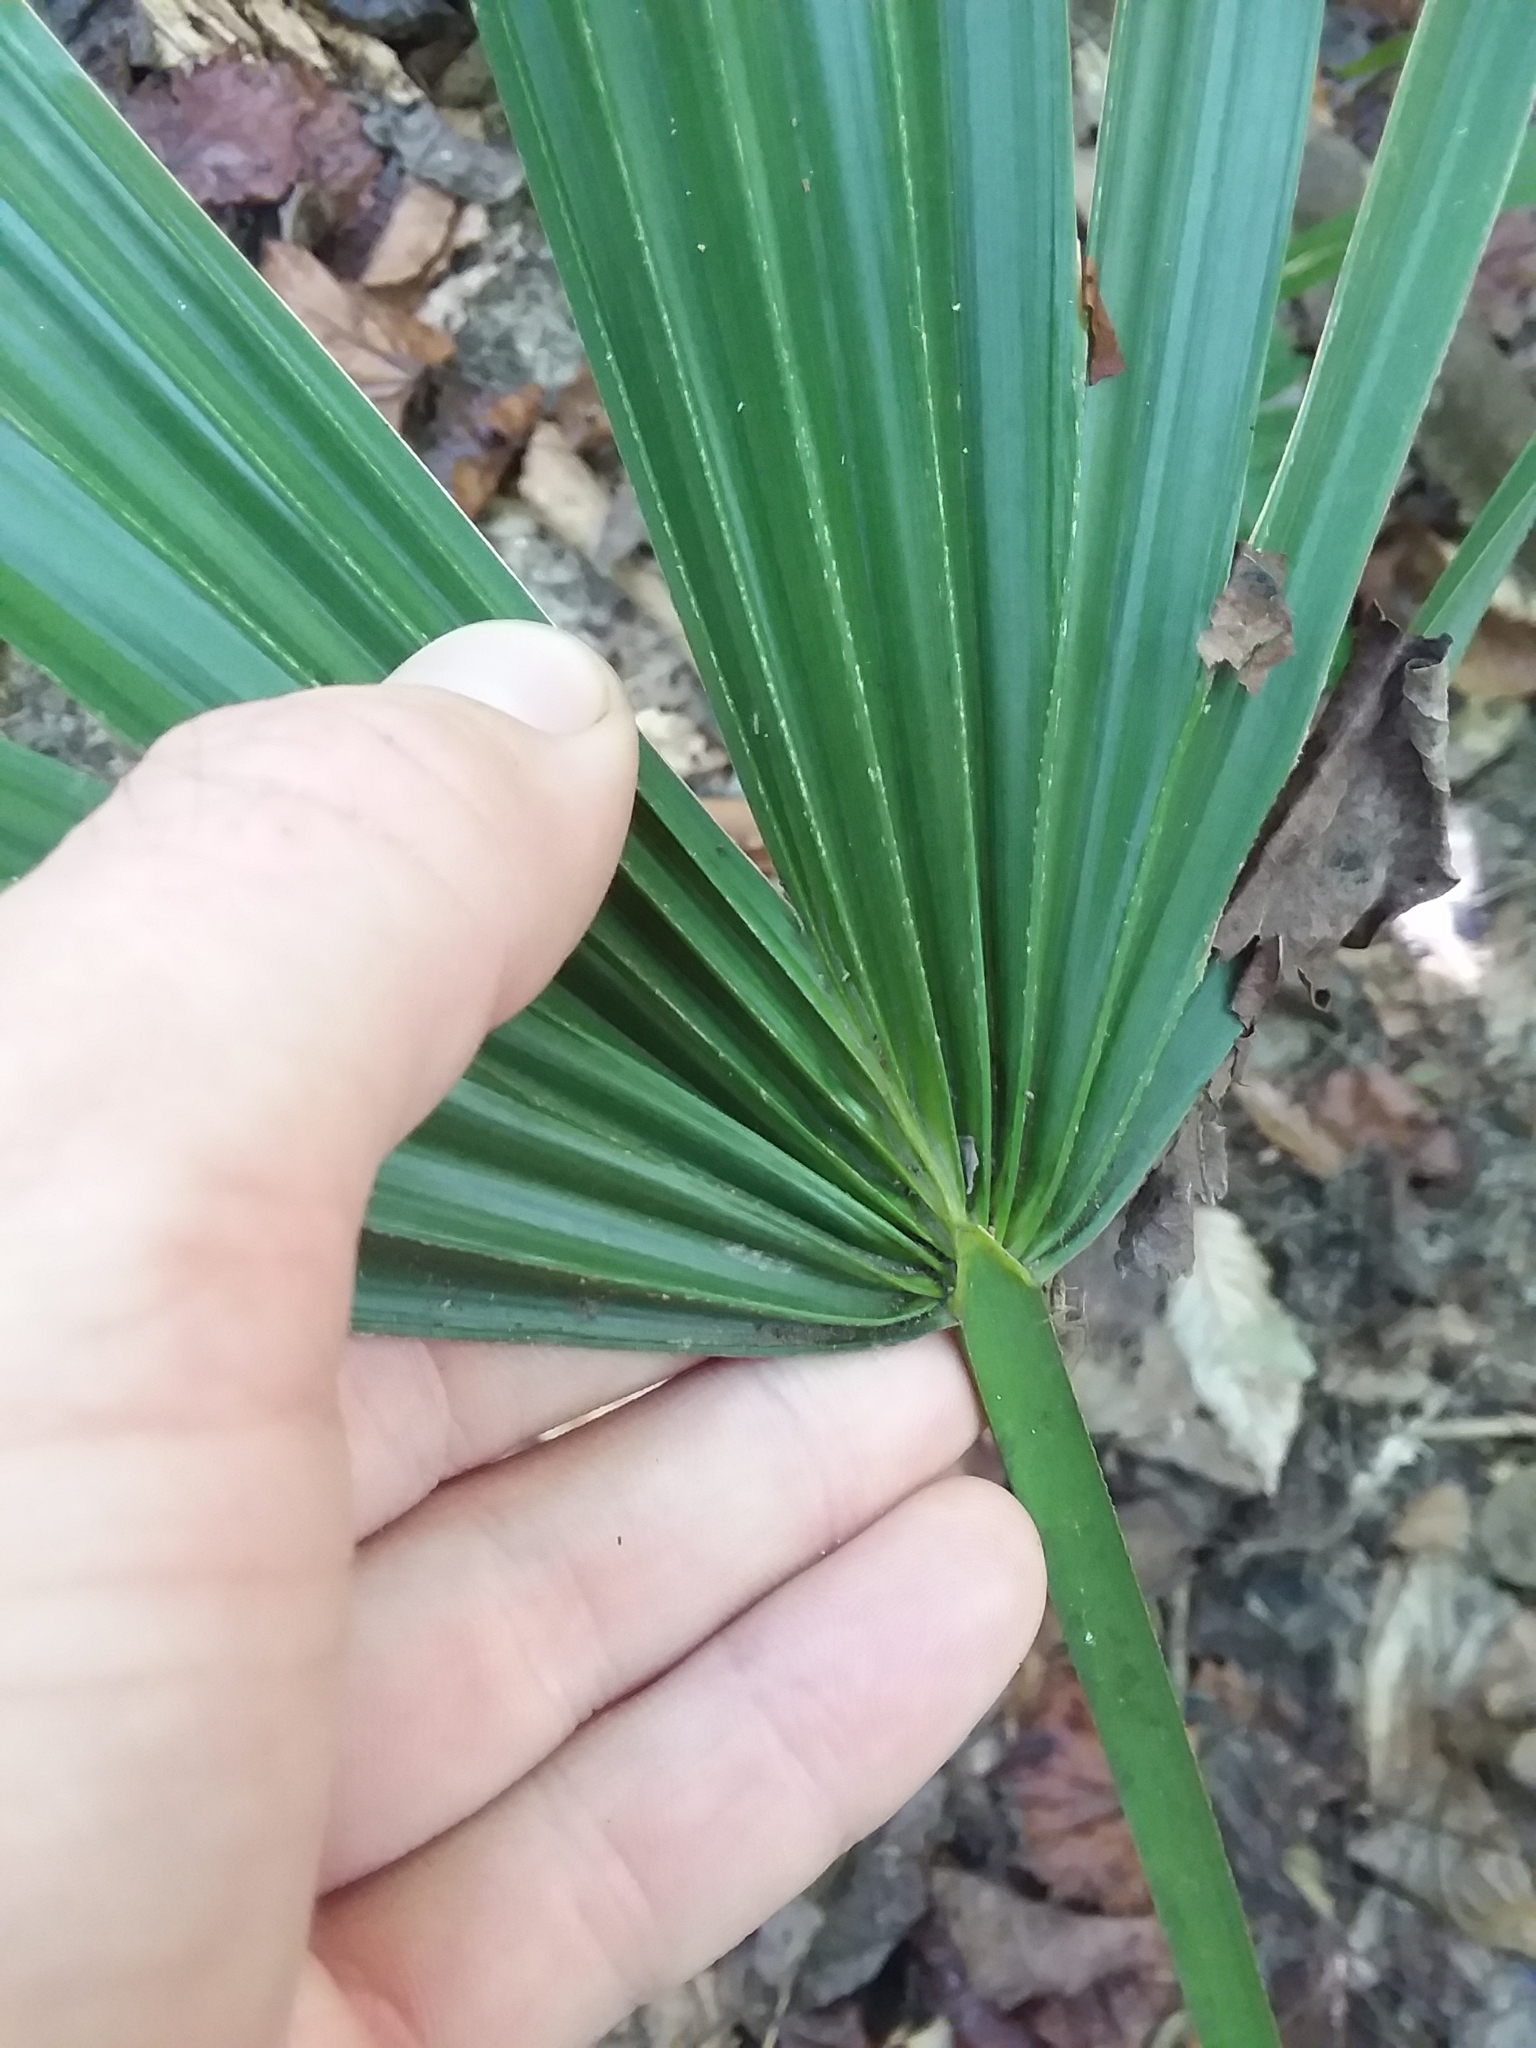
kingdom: Plantae
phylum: Tracheophyta
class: Liliopsida
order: Arecales
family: Arecaceae
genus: Sabal
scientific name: Sabal minor
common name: Dwarf palmetto
